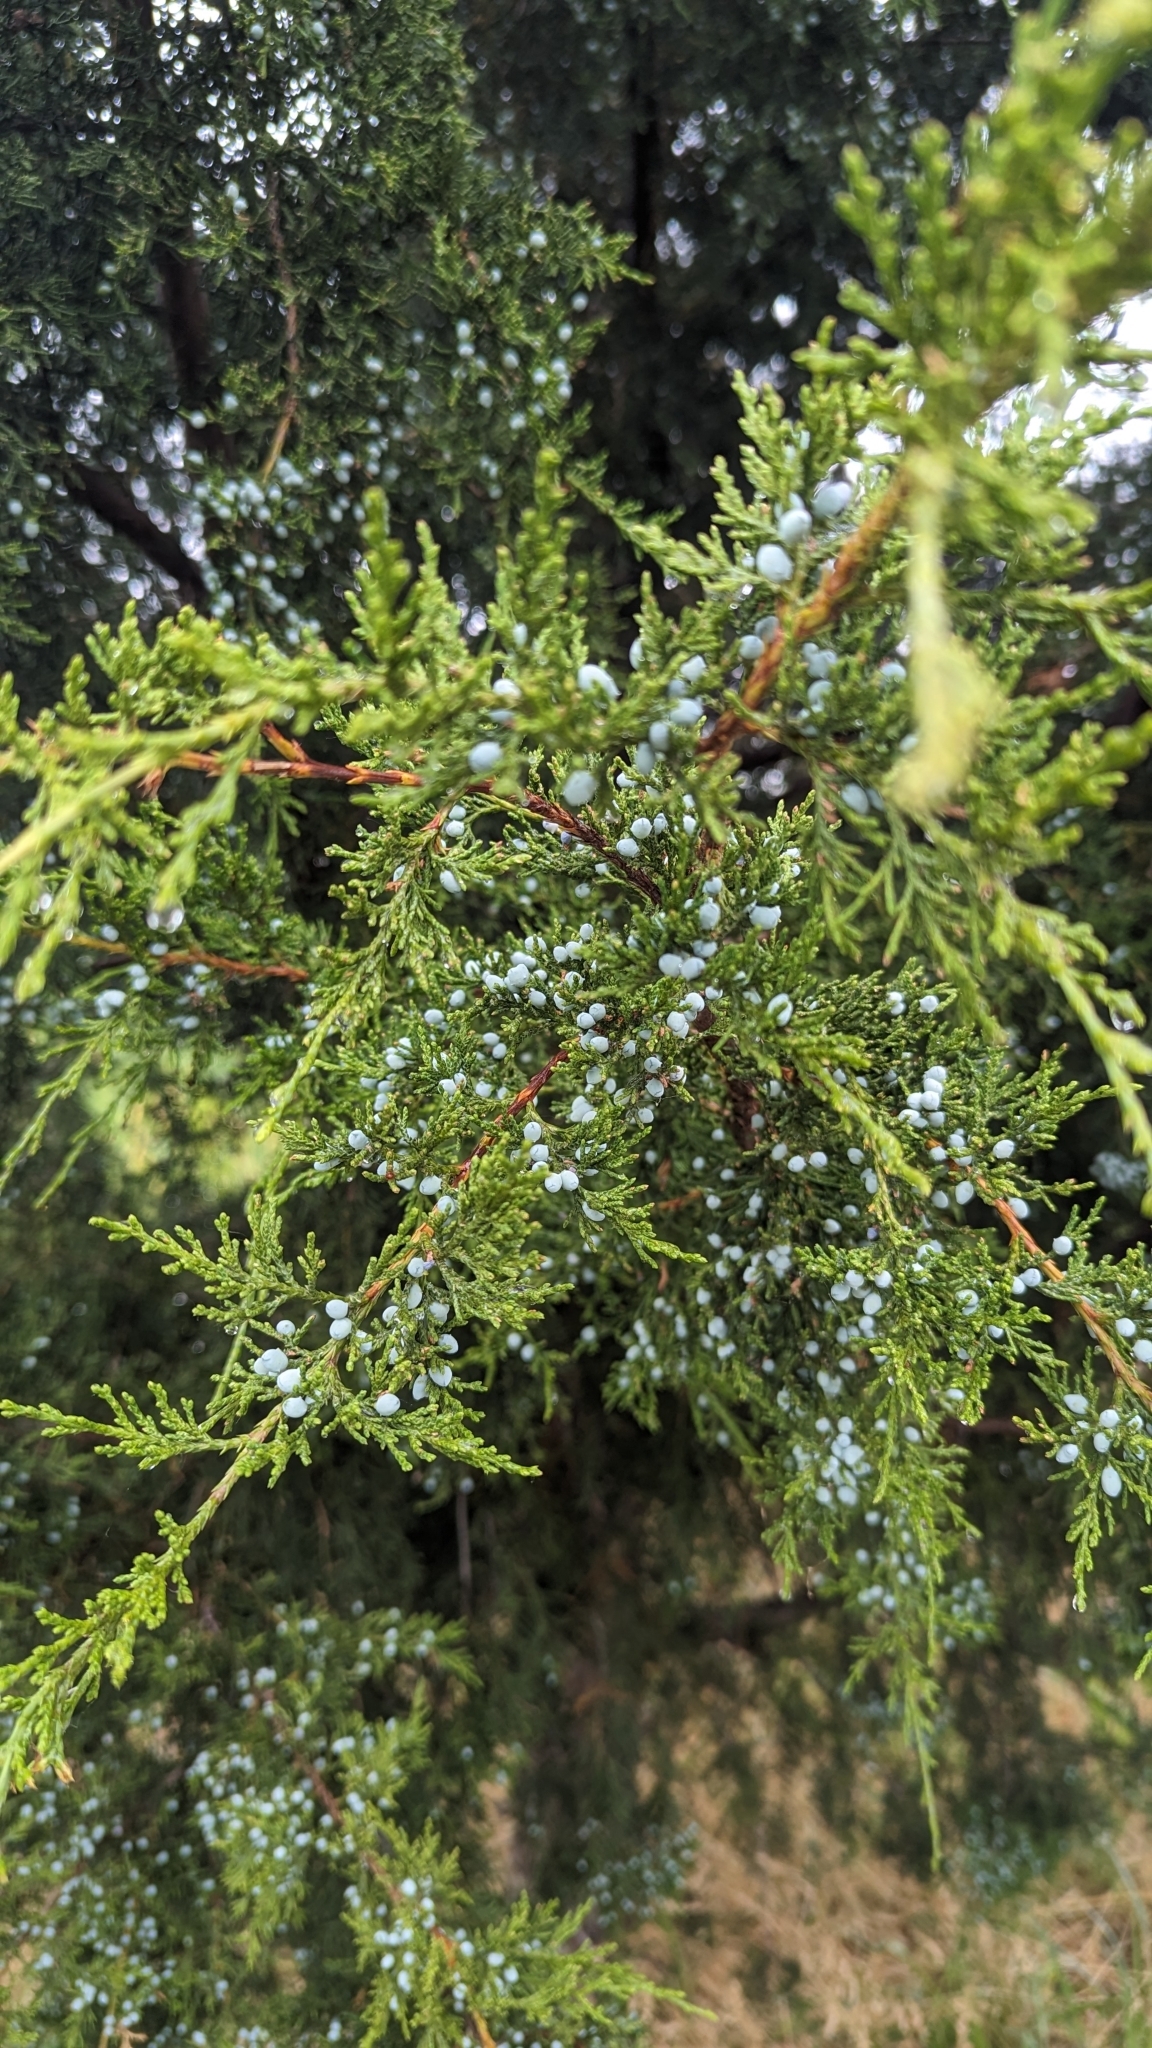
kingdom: Plantae
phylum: Tracheophyta
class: Pinopsida
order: Pinales
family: Cupressaceae
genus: Juniperus
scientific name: Juniperus virginiana
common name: Red juniper
